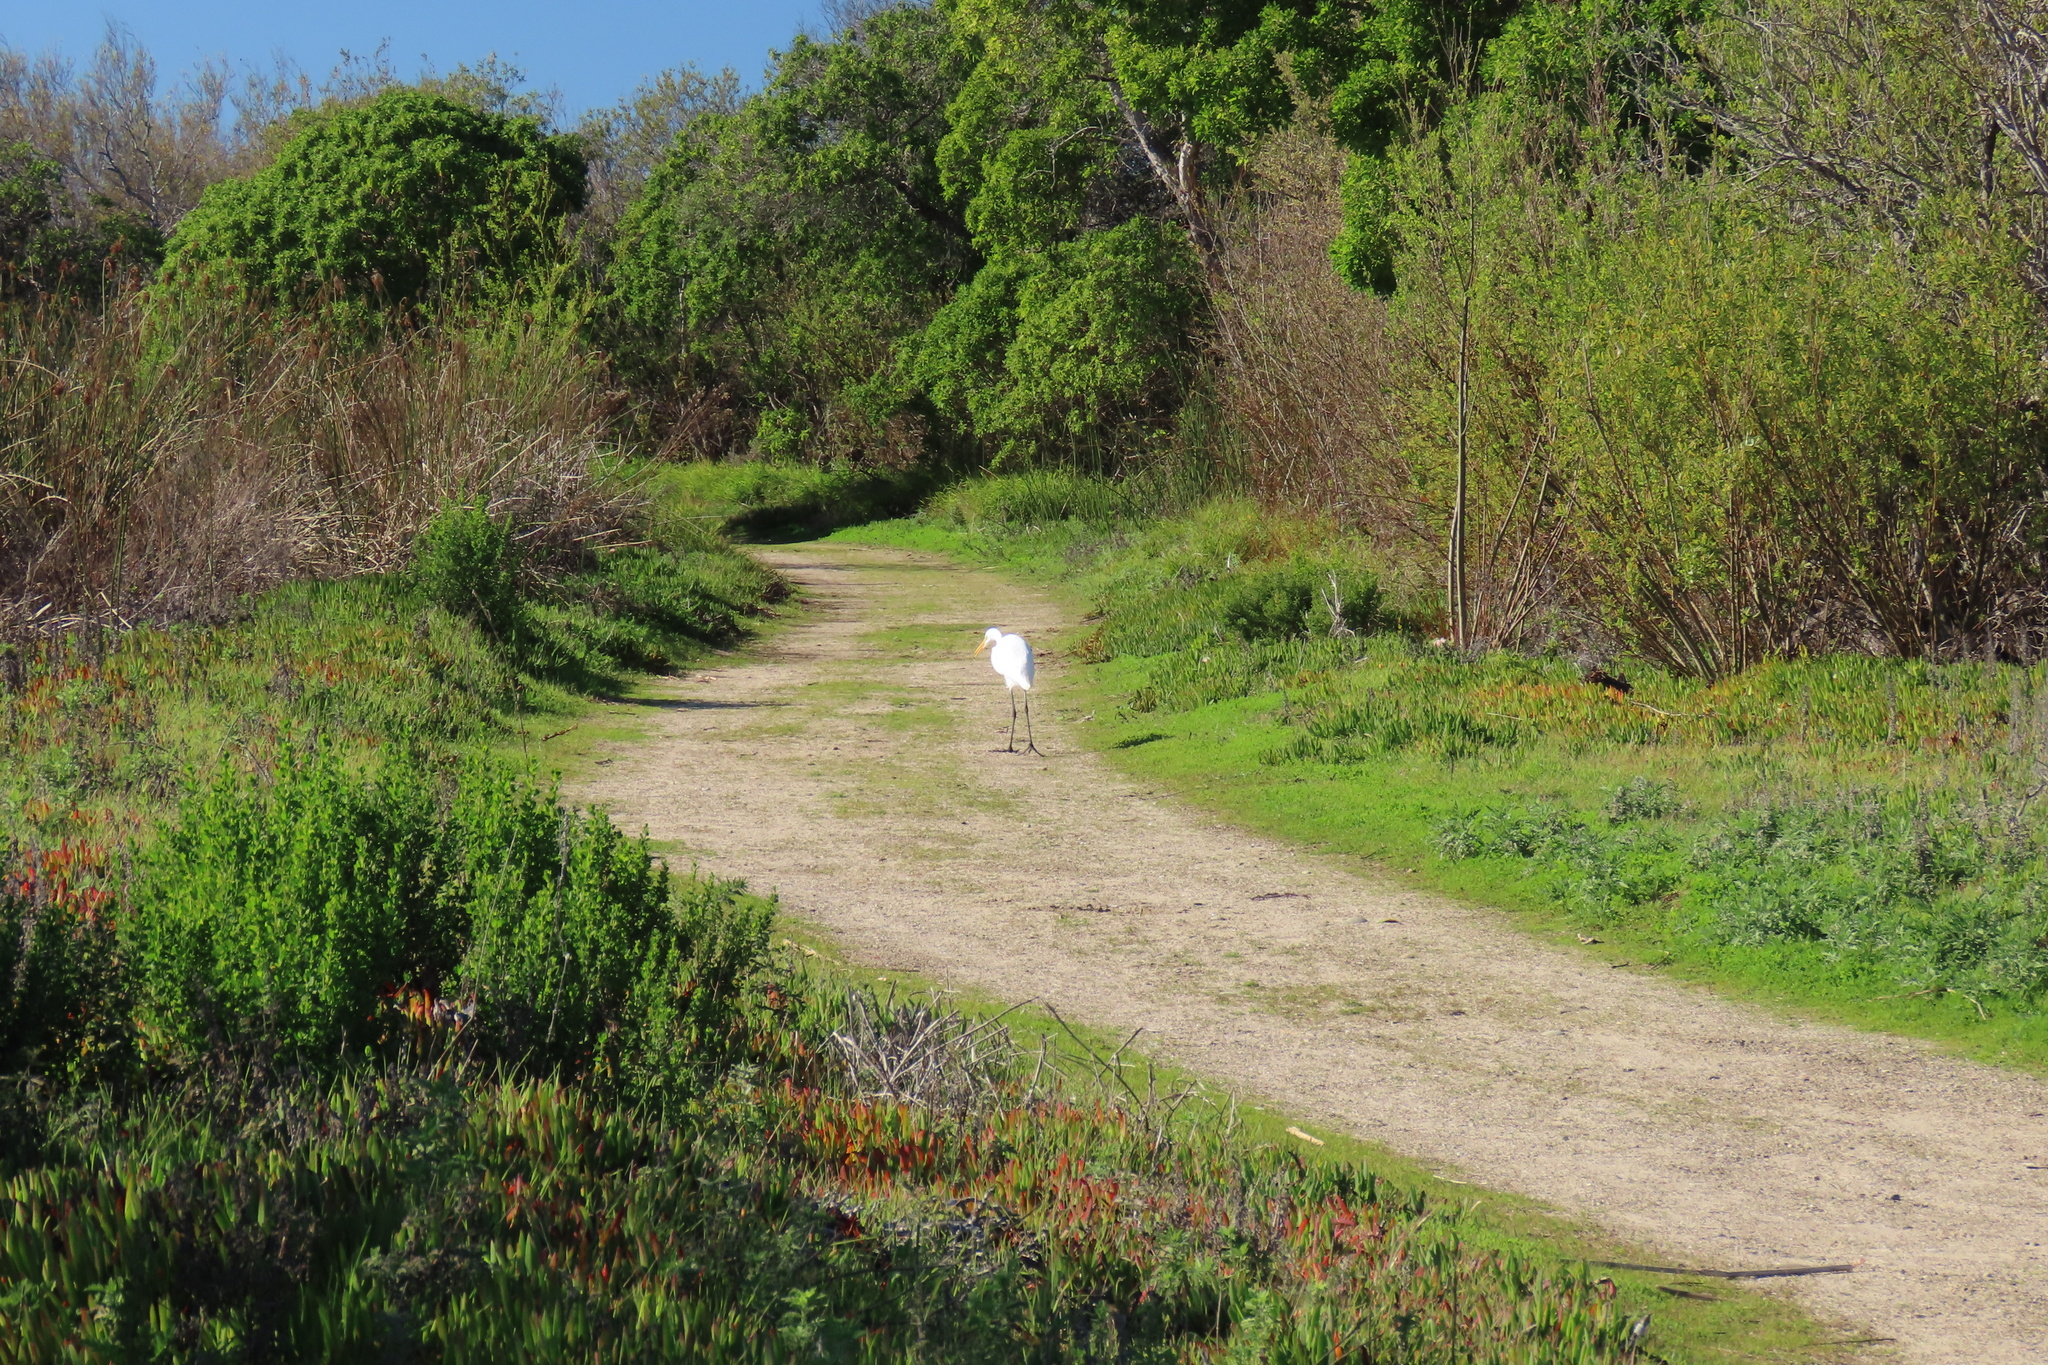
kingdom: Animalia
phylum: Chordata
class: Aves
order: Pelecaniformes
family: Ardeidae
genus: Ardea
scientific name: Ardea alba
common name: Great egret
